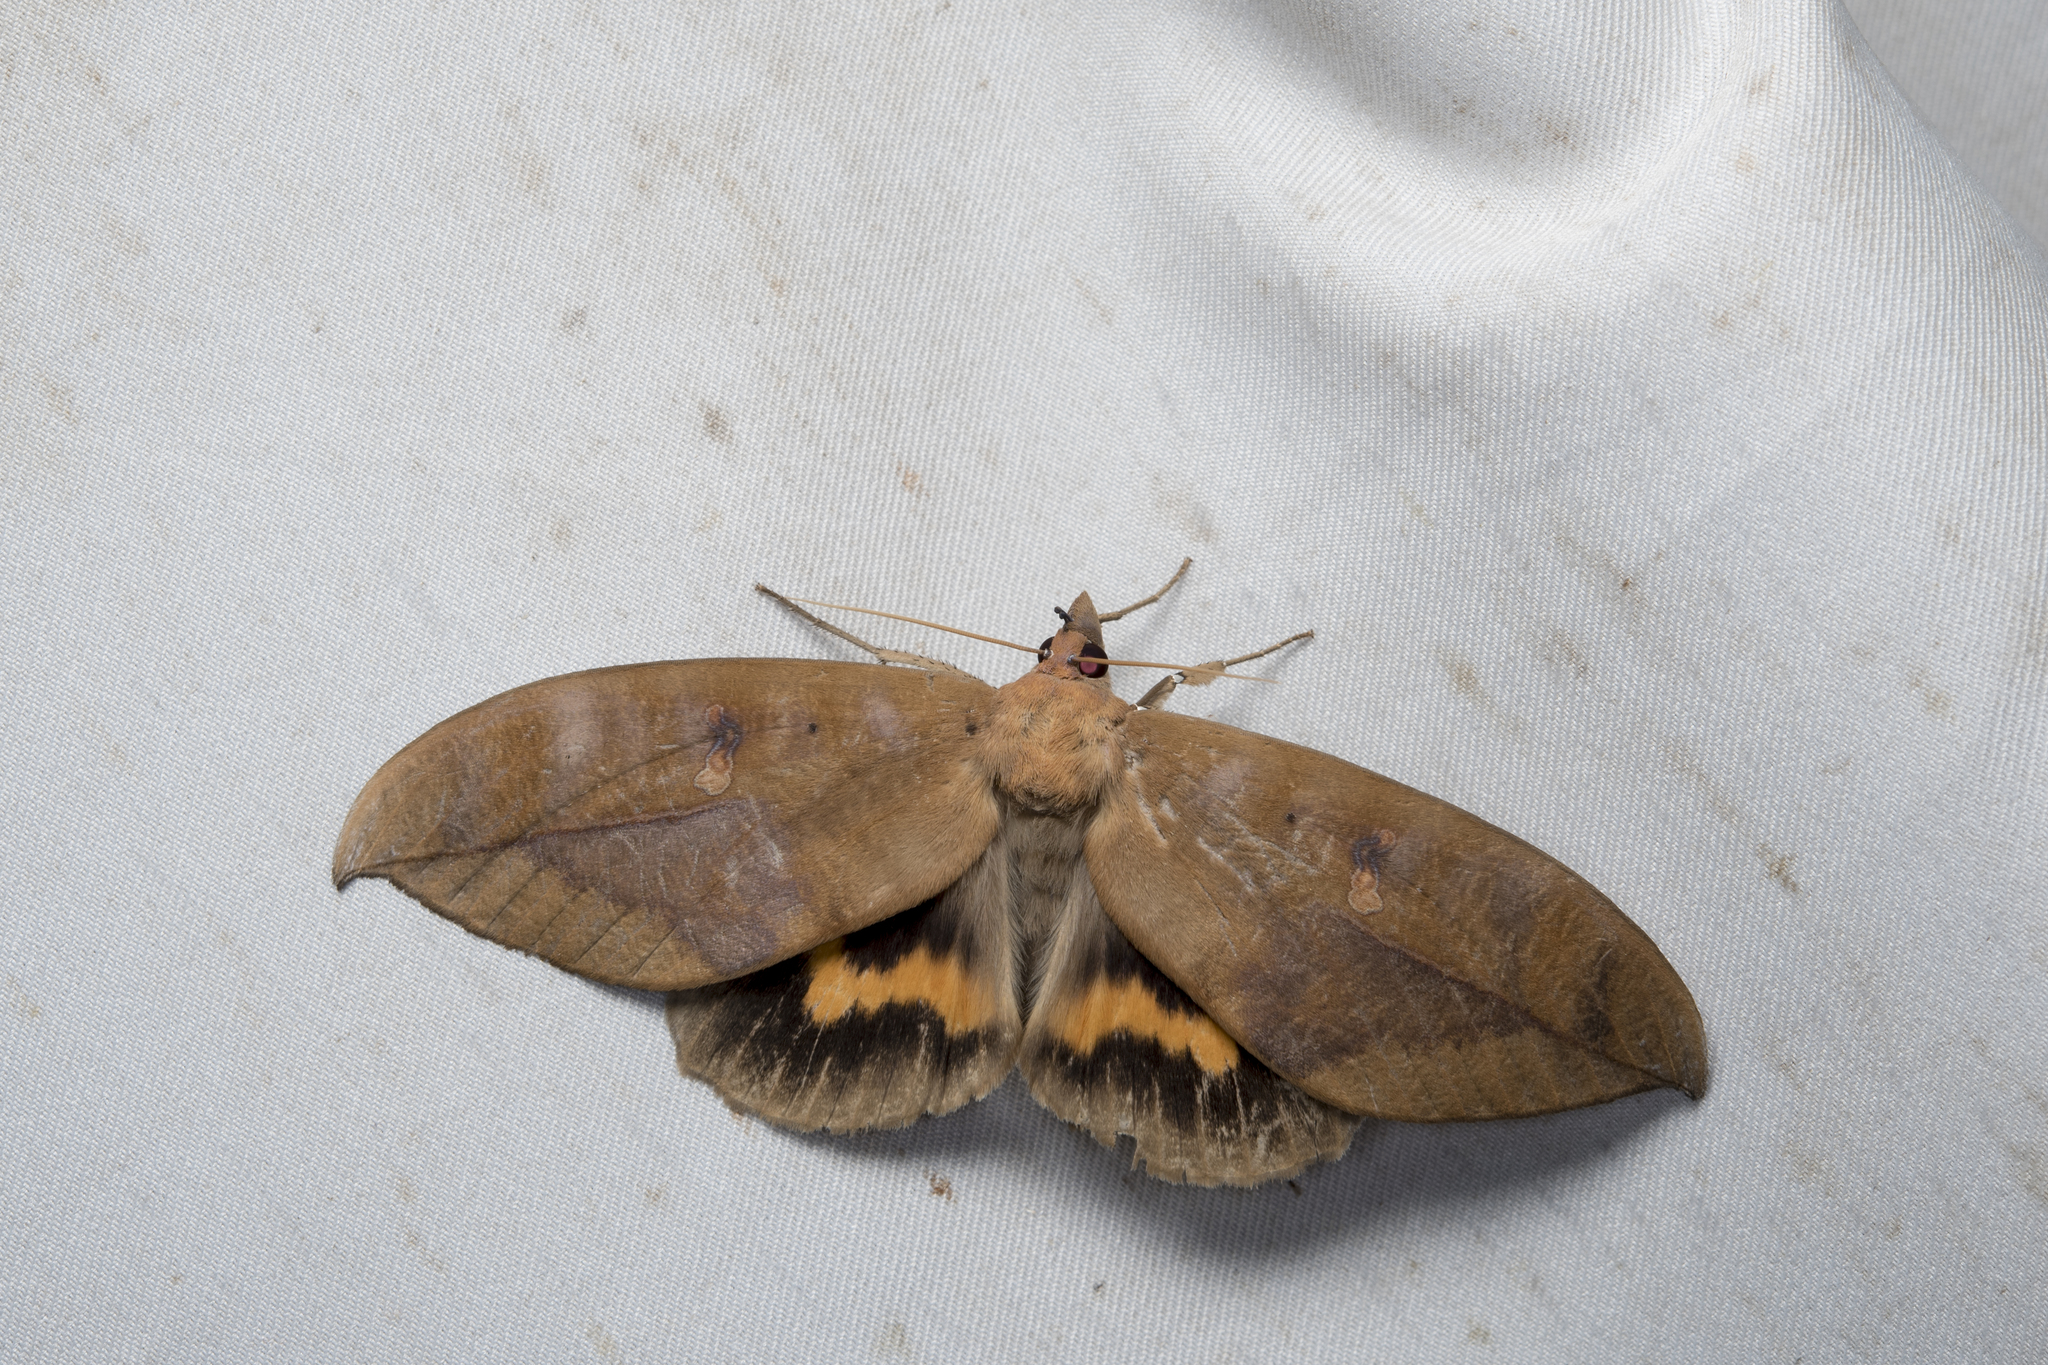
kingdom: Animalia
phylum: Arthropoda
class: Insecta
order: Lepidoptera
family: Erebidae
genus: Phyllodes
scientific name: Phyllodes eyndhovii
